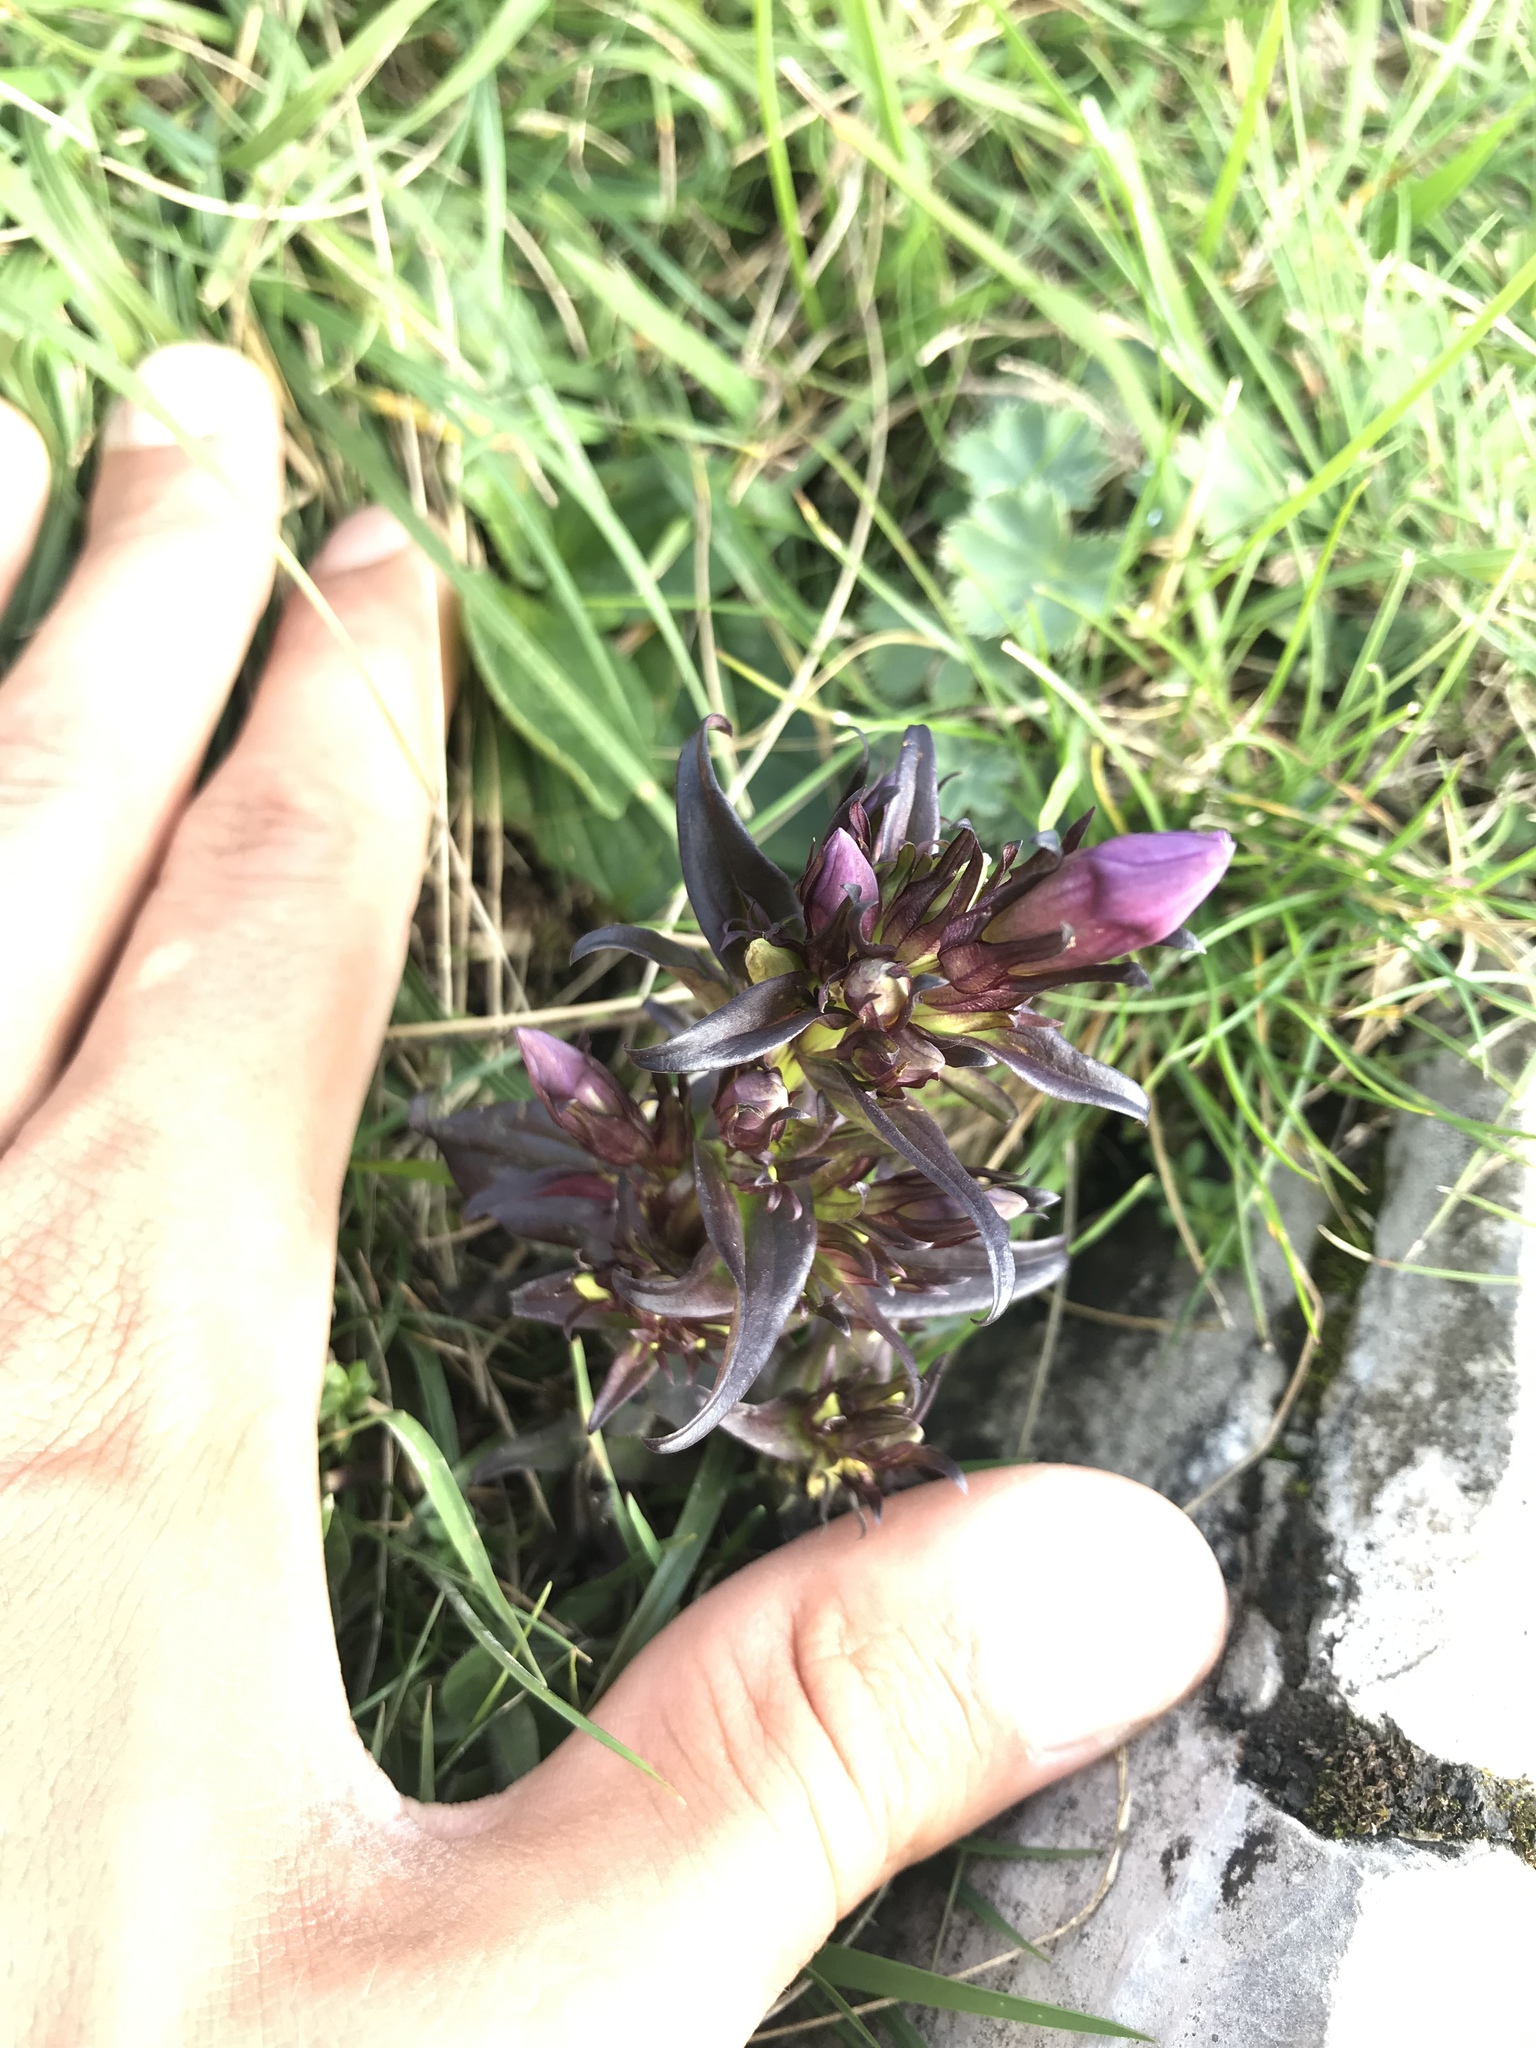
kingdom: Plantae
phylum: Tracheophyta
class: Magnoliopsida
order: Gentianales
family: Gentianaceae
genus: Gentianella
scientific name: Gentianella insubrica
